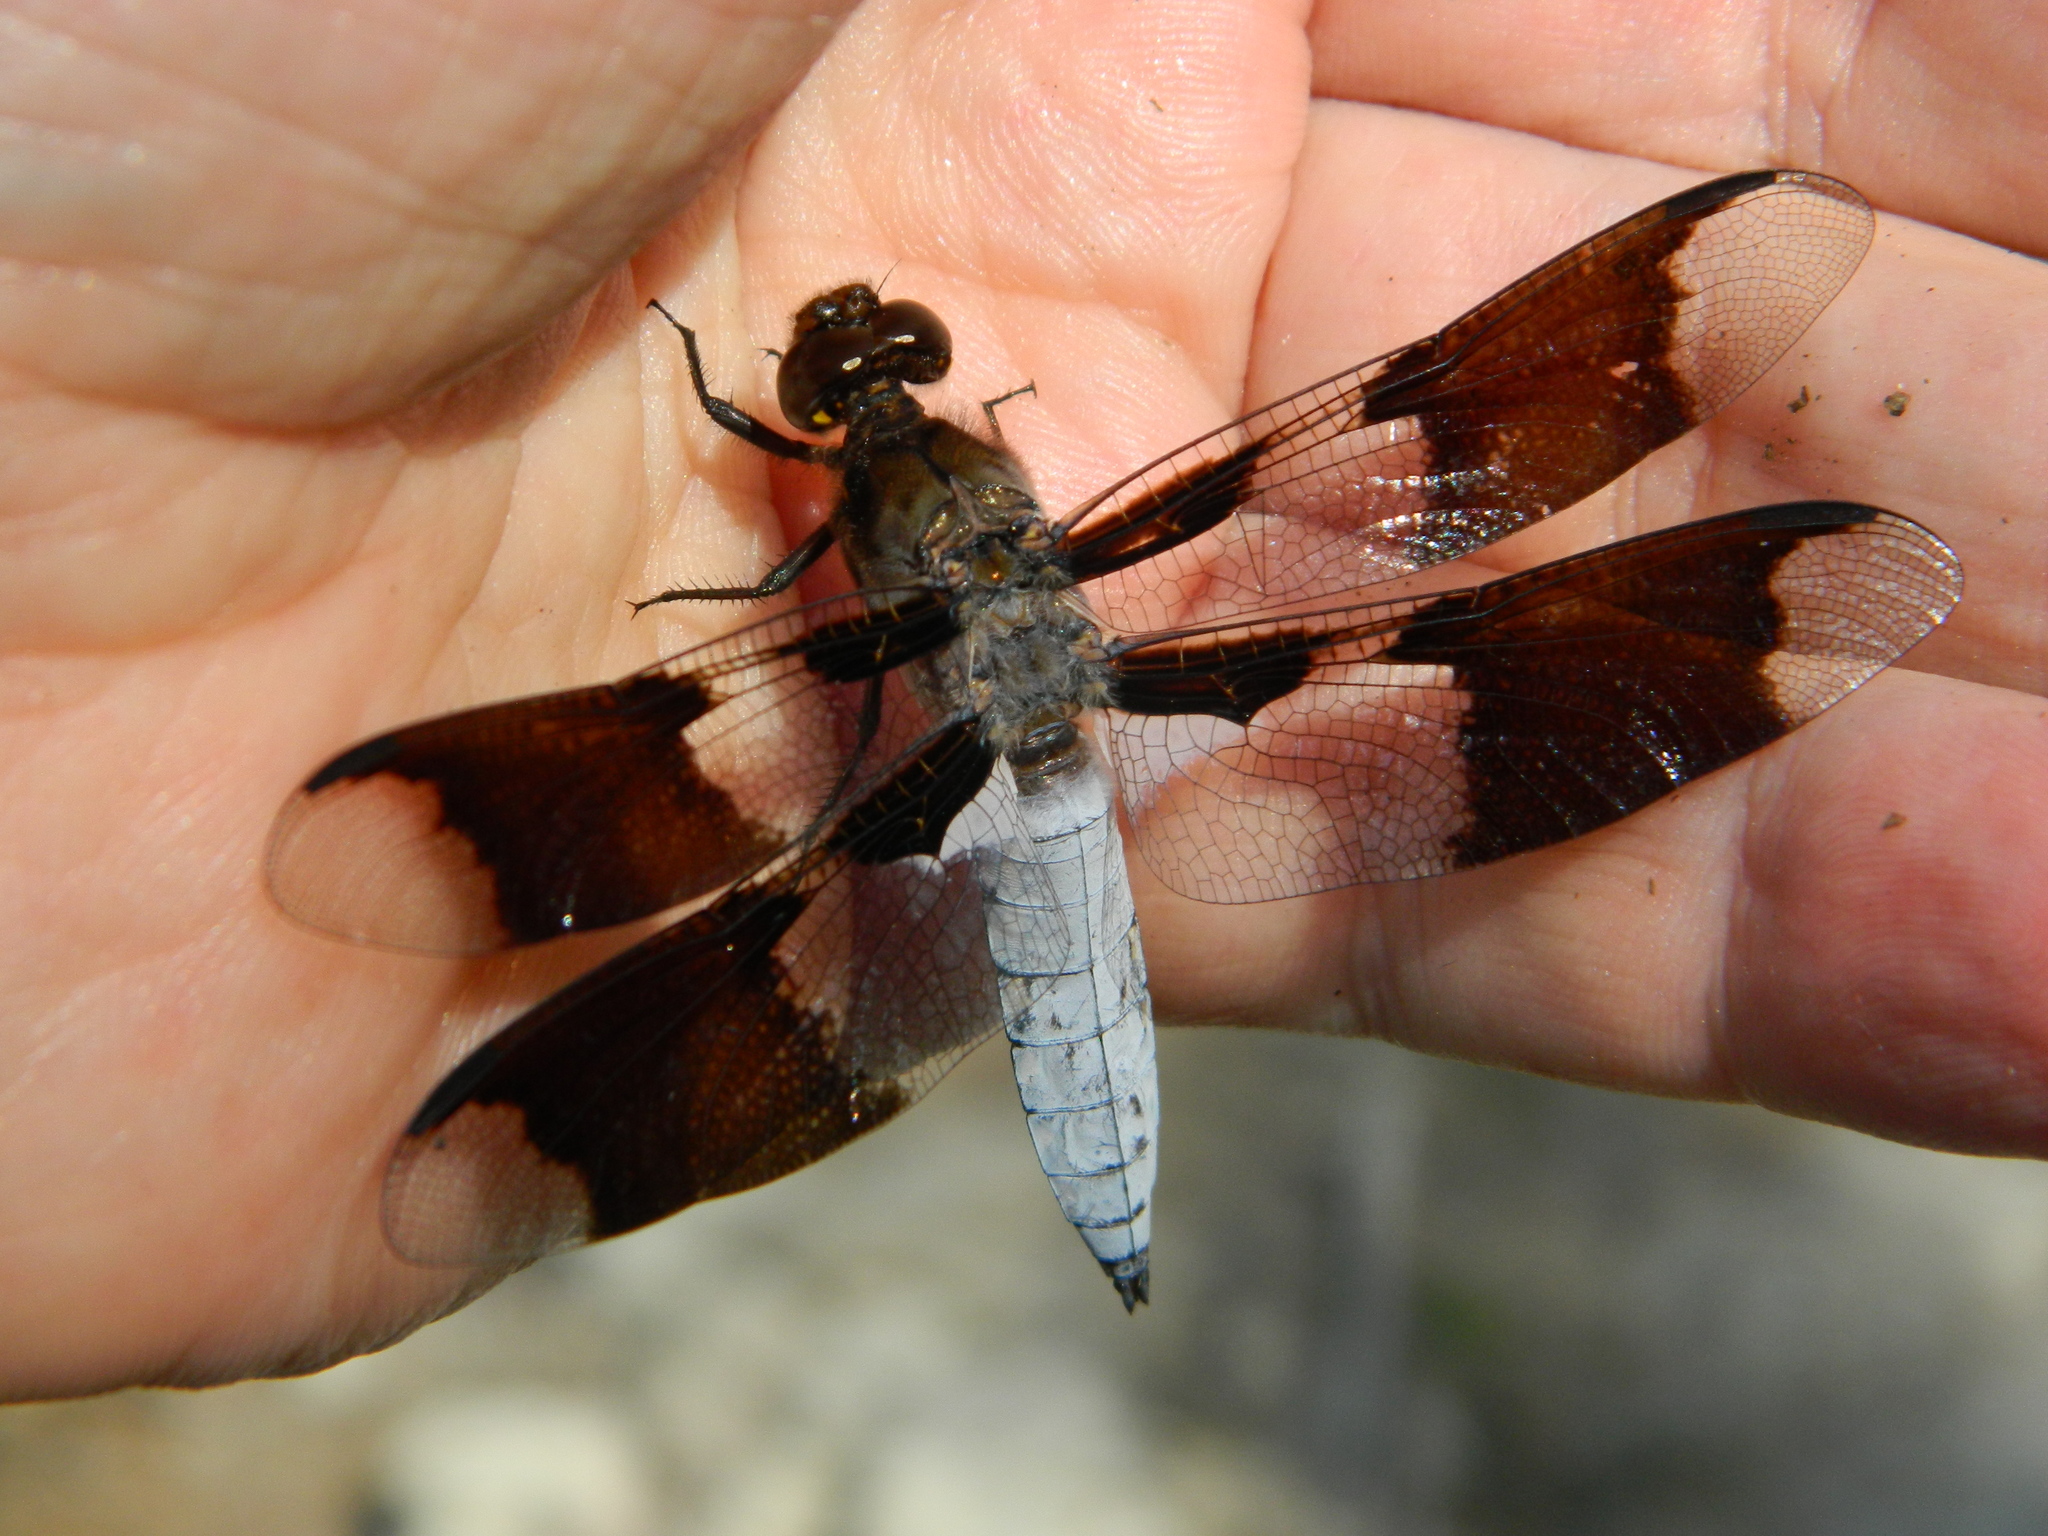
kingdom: Animalia
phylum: Arthropoda
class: Insecta
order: Odonata
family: Libellulidae
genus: Plathemis
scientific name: Plathemis lydia
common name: Common whitetail
